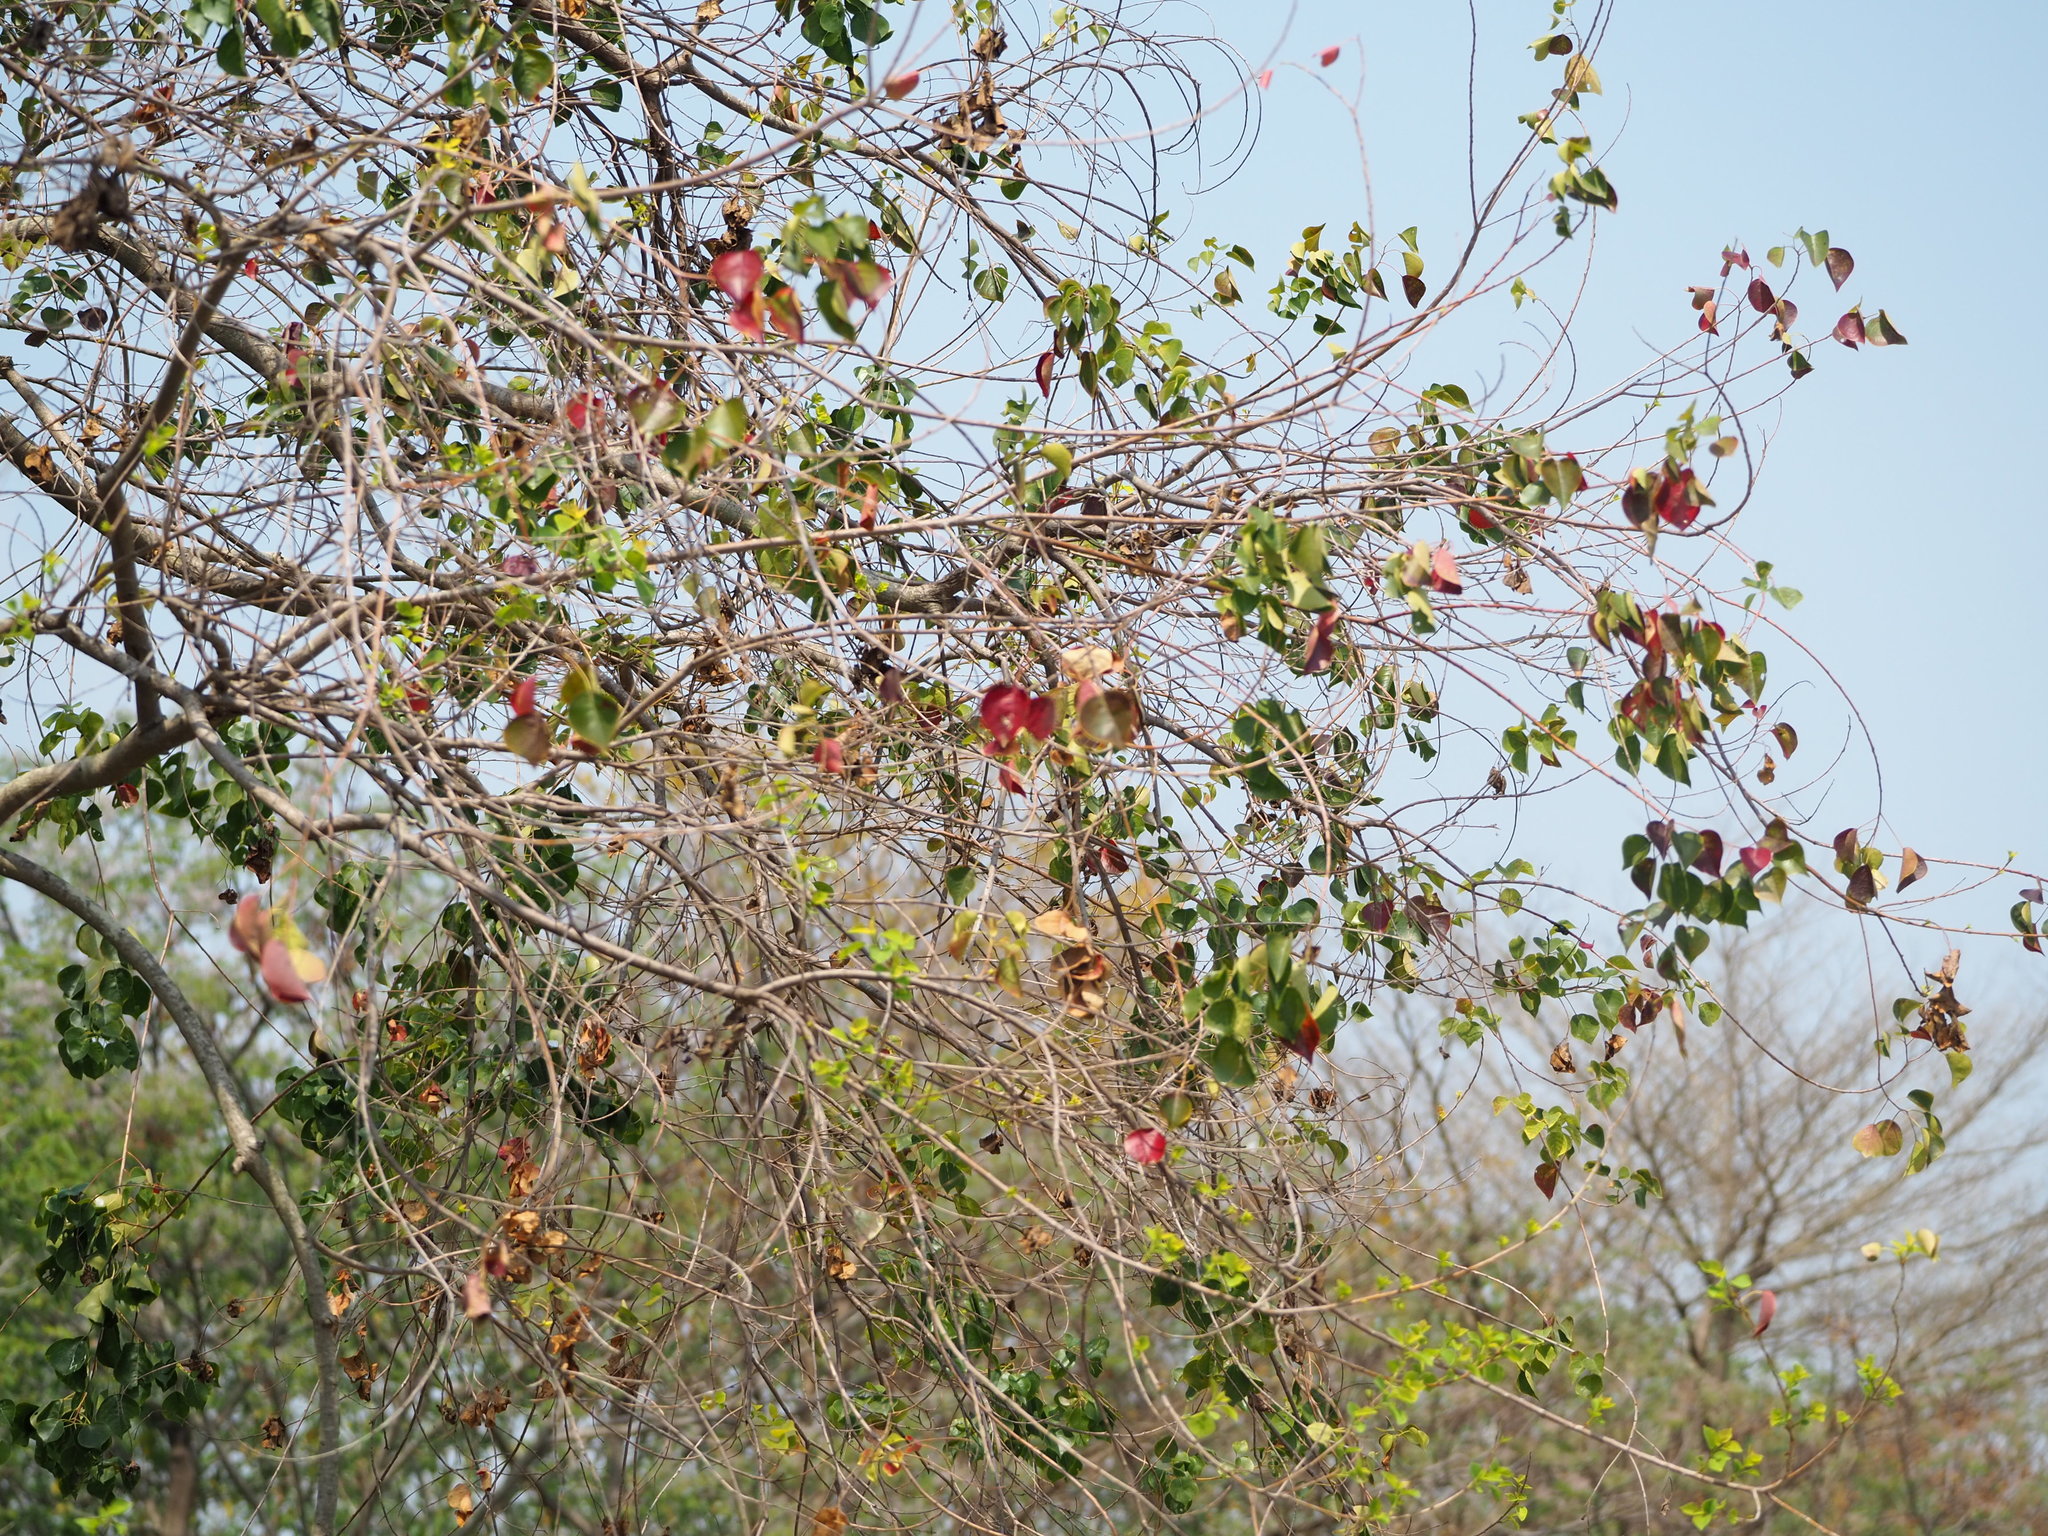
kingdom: Plantae
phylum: Tracheophyta
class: Magnoliopsida
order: Malpighiales
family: Euphorbiaceae
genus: Triadica
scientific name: Triadica sebifera
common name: Chinese tallow
